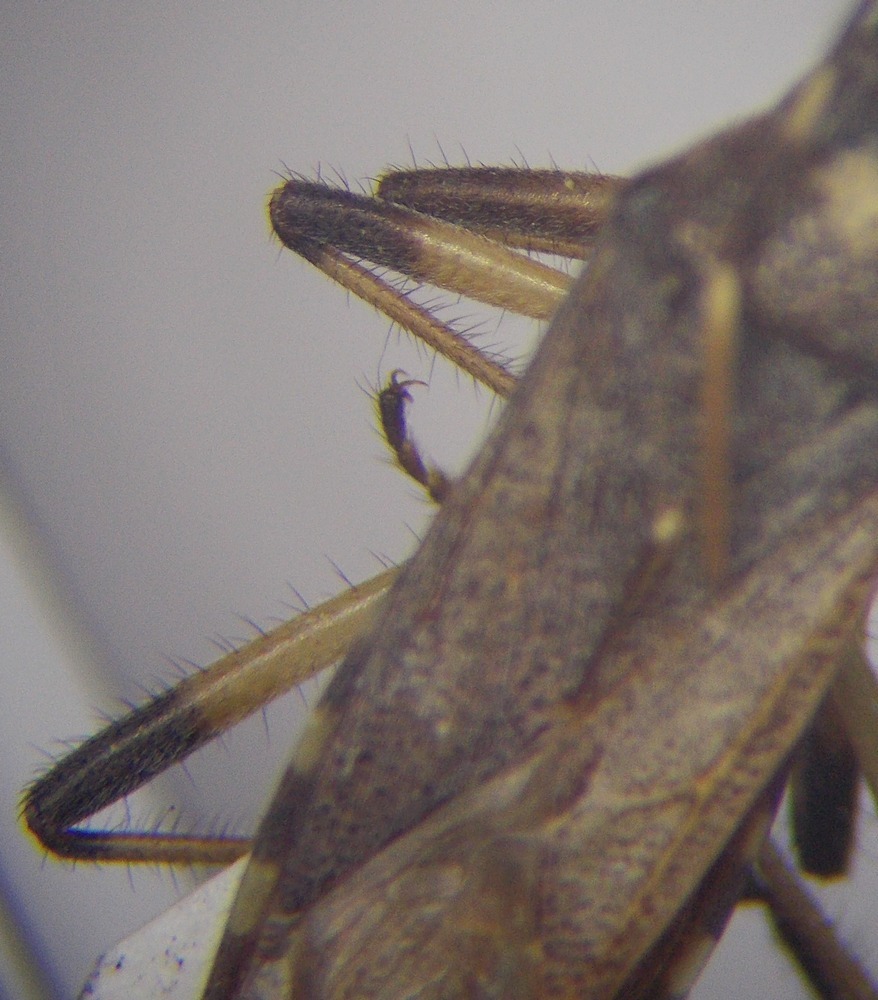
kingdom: Animalia
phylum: Arthropoda
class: Insecta
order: Hemiptera
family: Stenocephalidae
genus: Dicranocephalus
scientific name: Dicranocephalus setulosus
